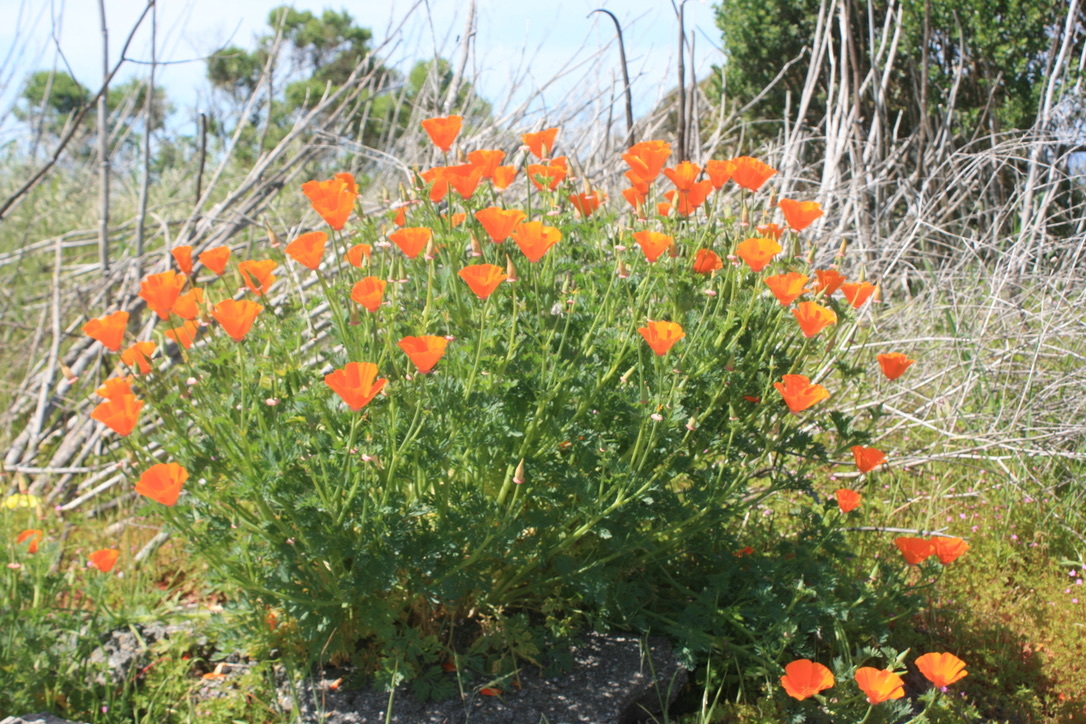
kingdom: Plantae
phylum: Tracheophyta
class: Magnoliopsida
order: Ranunculales
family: Papaveraceae
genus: Eschscholzia
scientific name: Eschscholzia californica
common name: California poppy
